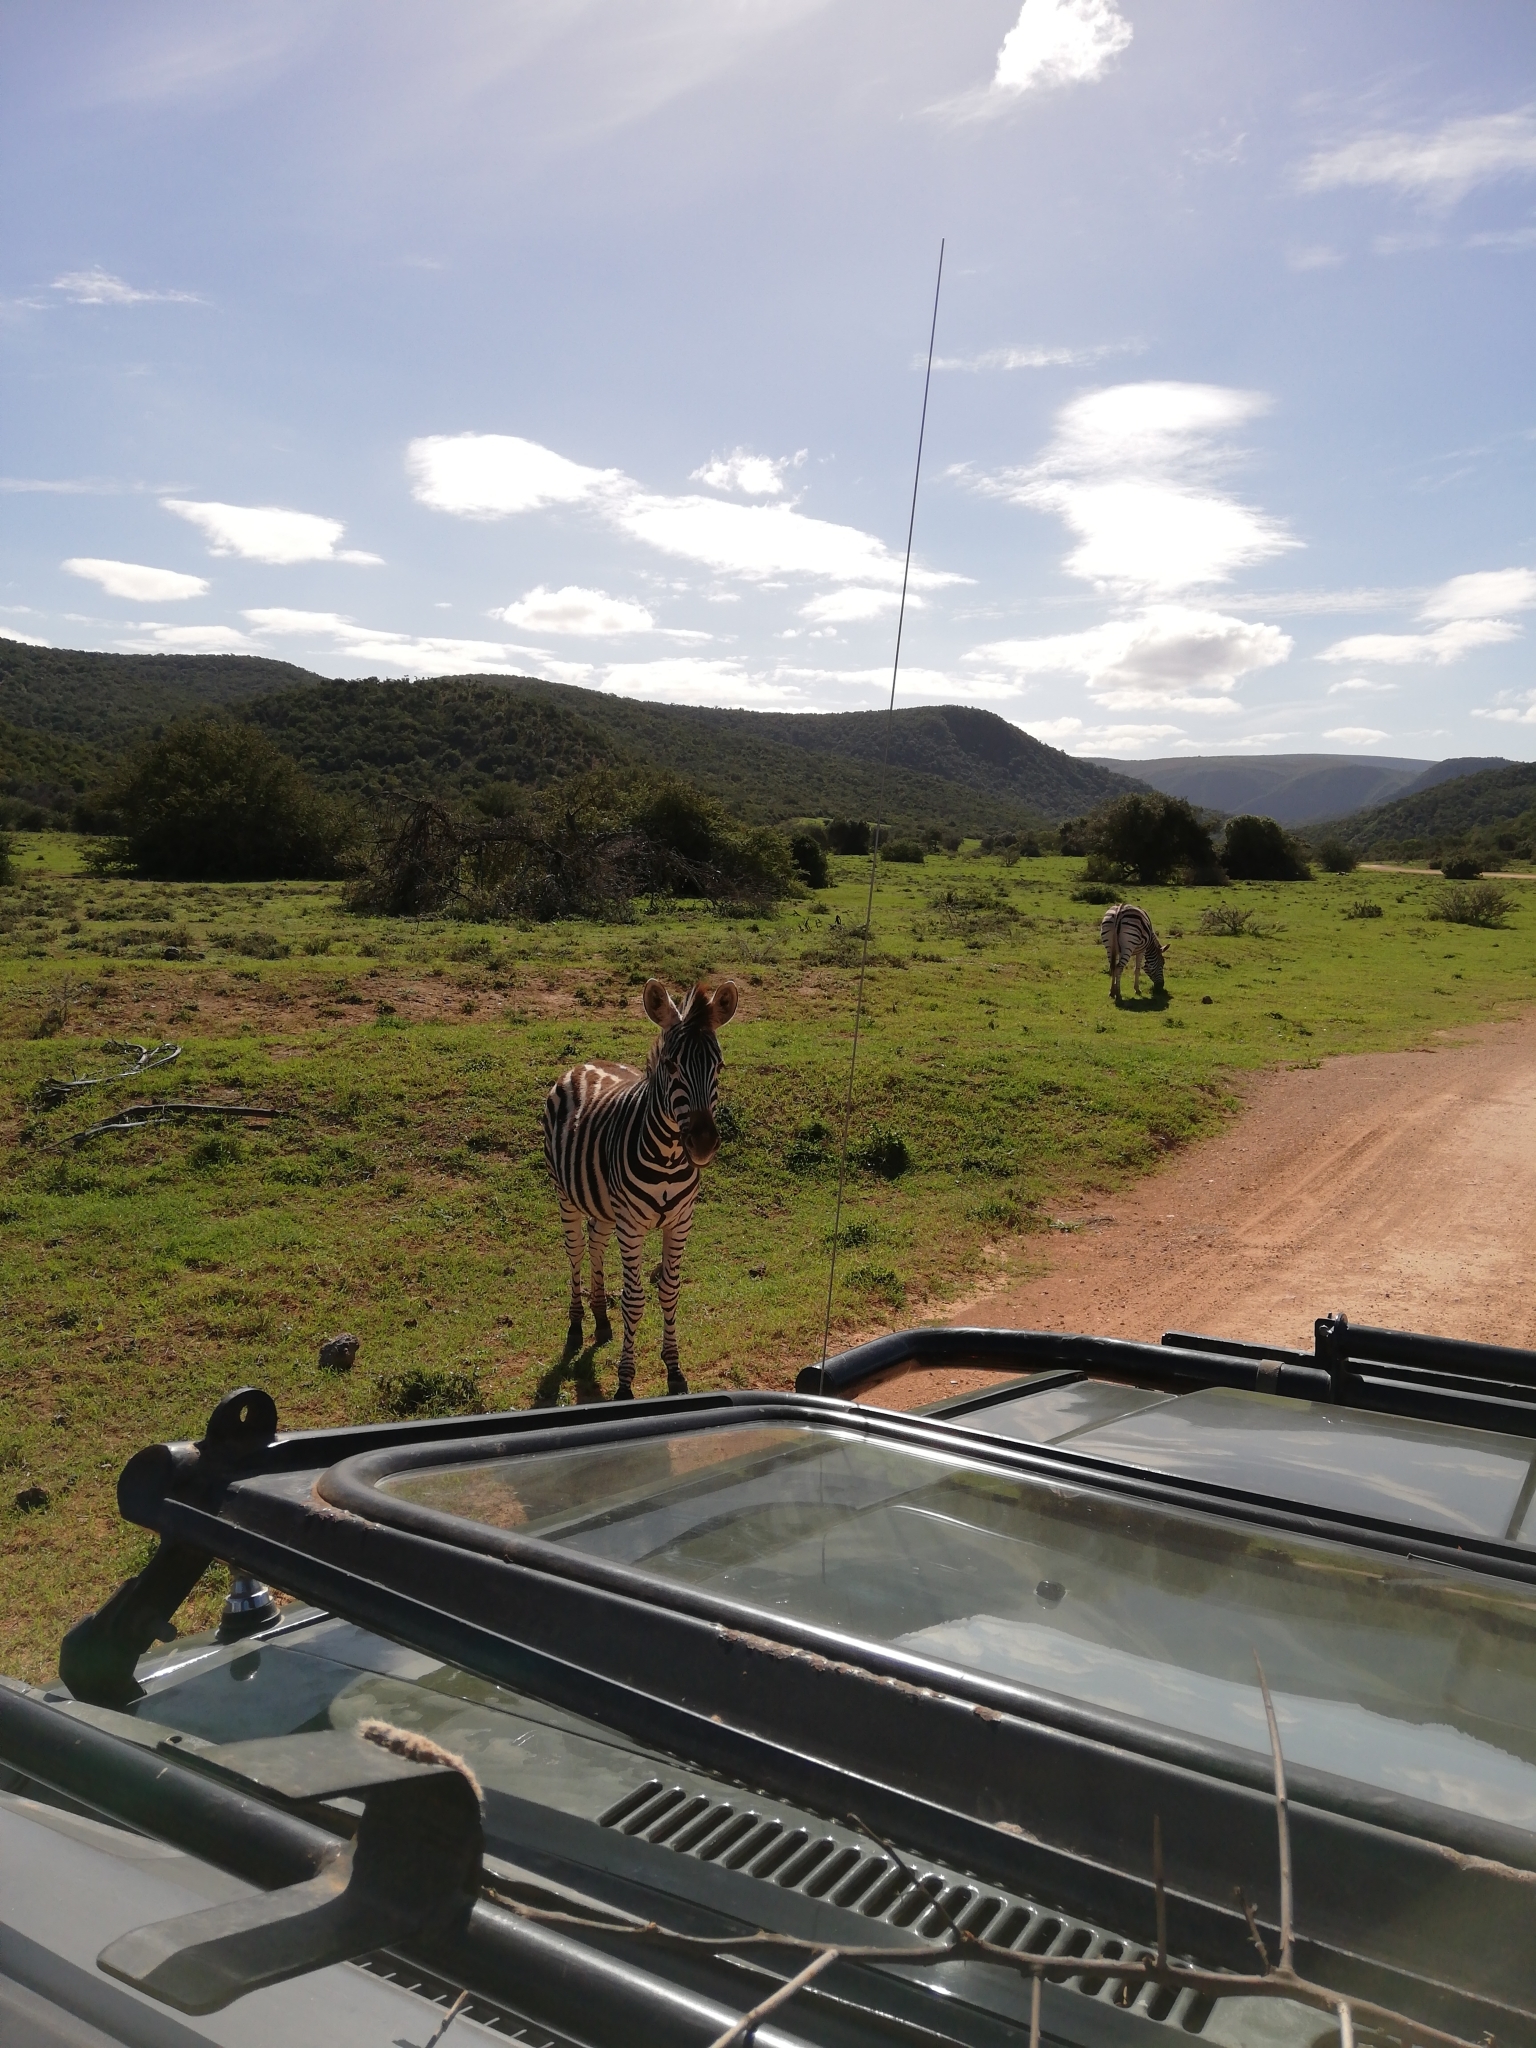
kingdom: Animalia
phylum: Chordata
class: Mammalia
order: Perissodactyla
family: Equidae
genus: Equus
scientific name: Equus quagga
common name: Plains zebra
